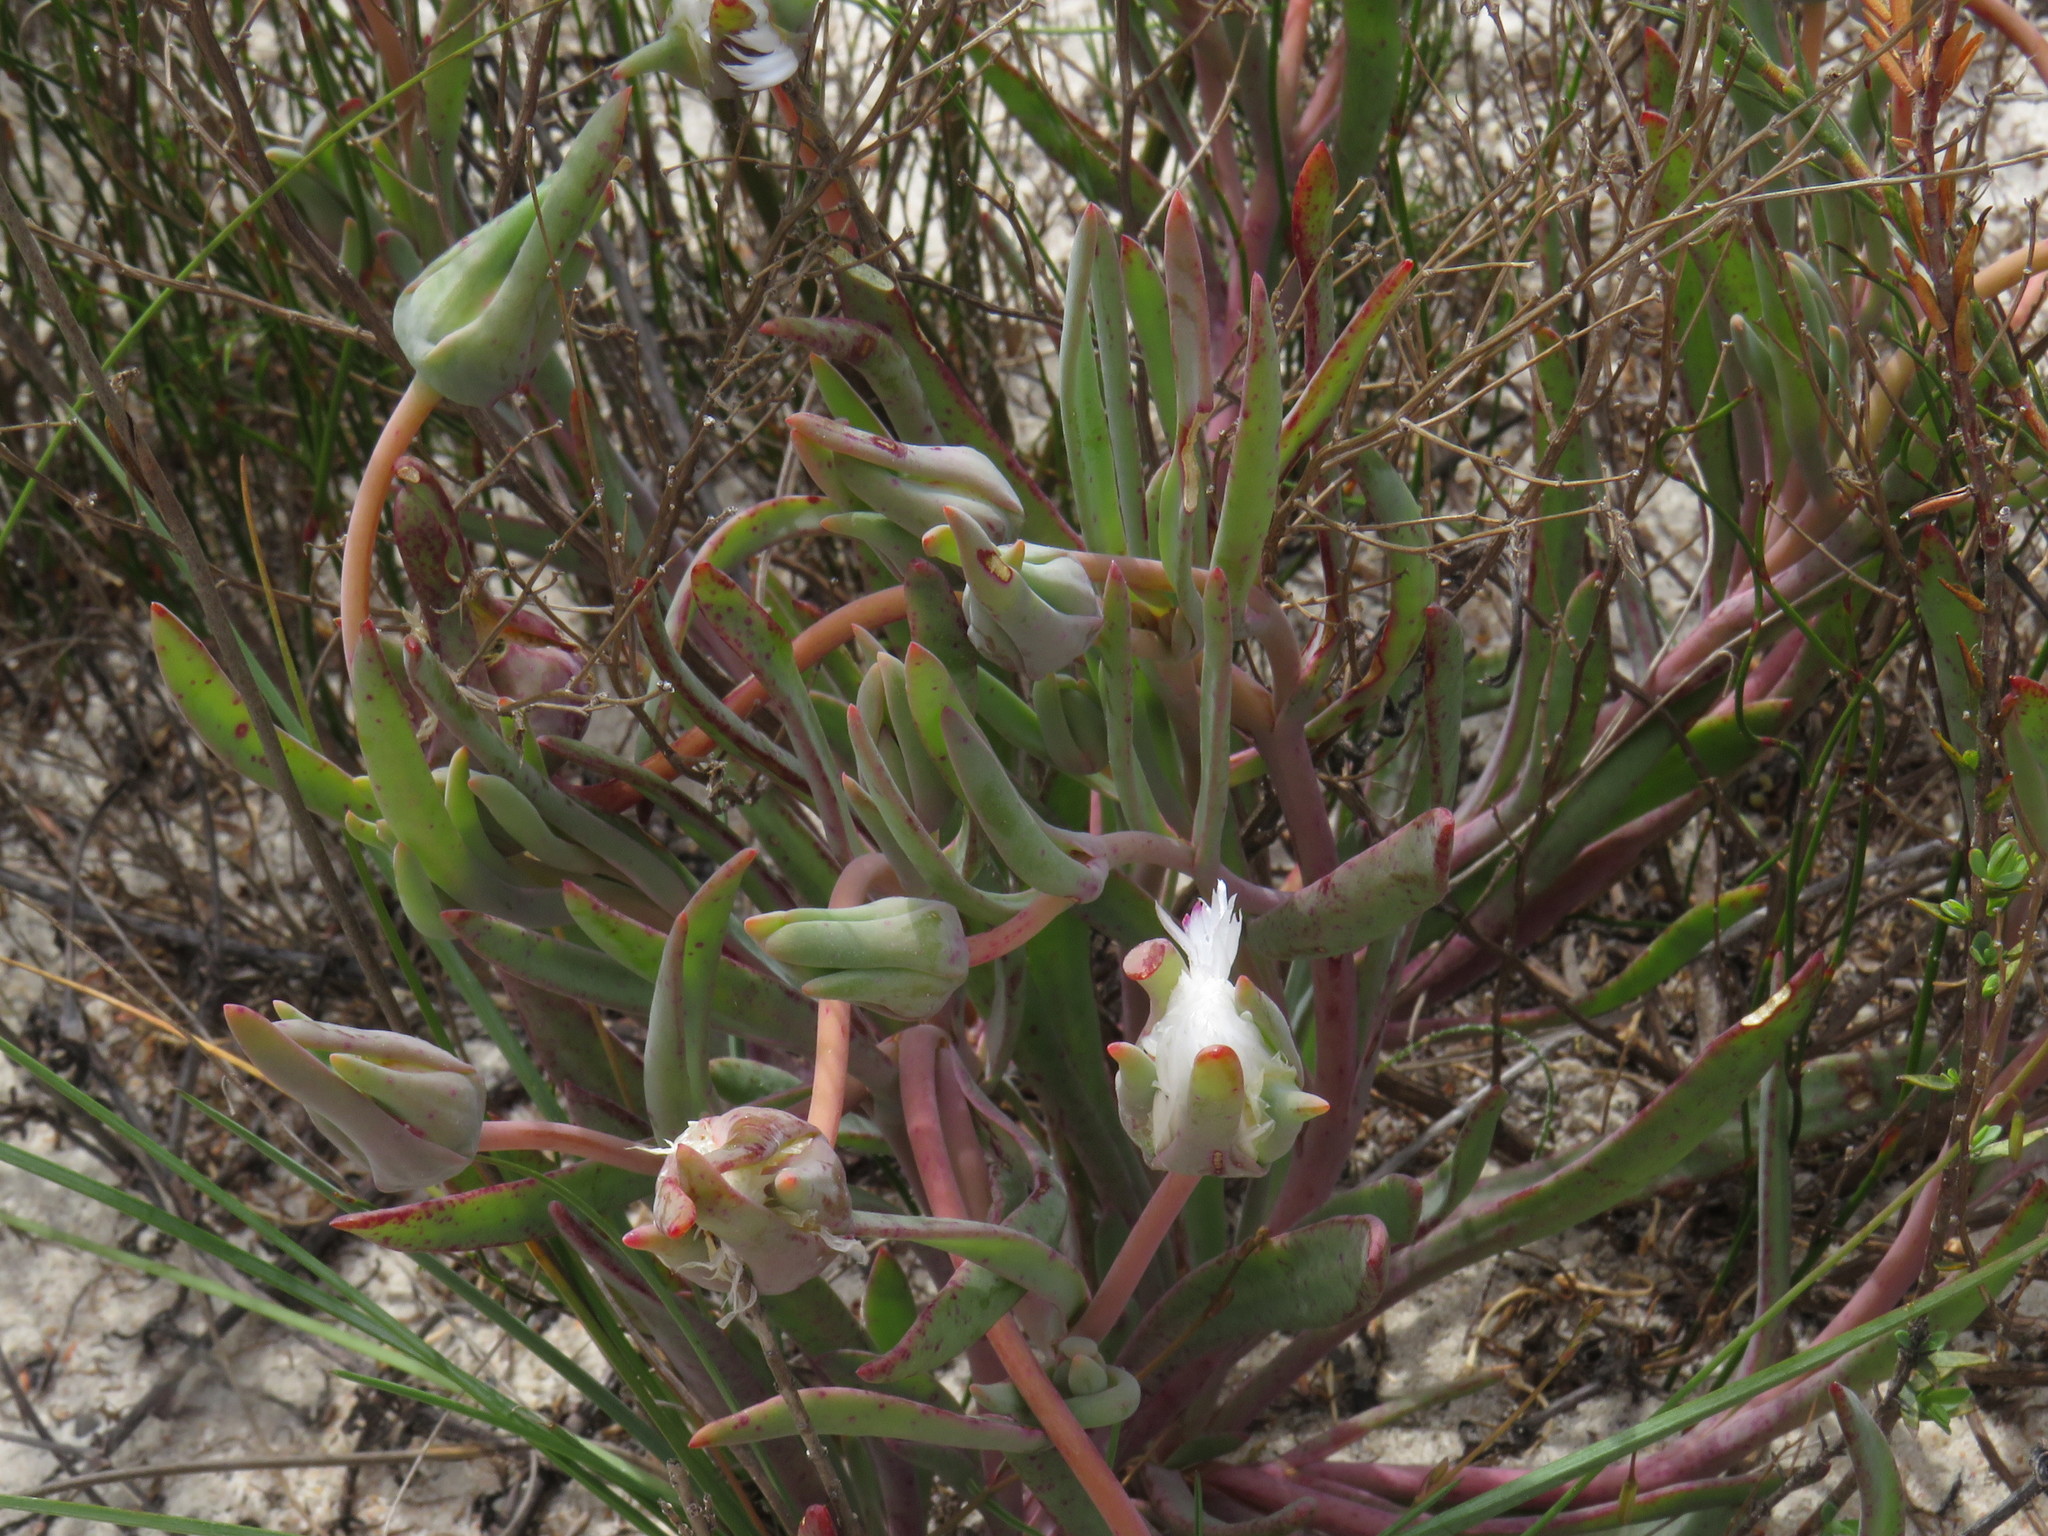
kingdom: Plantae
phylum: Tracheophyta
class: Magnoliopsida
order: Caryophyllales
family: Aizoaceae
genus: Skiatophytum
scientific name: Skiatophytum flaccidifolium
